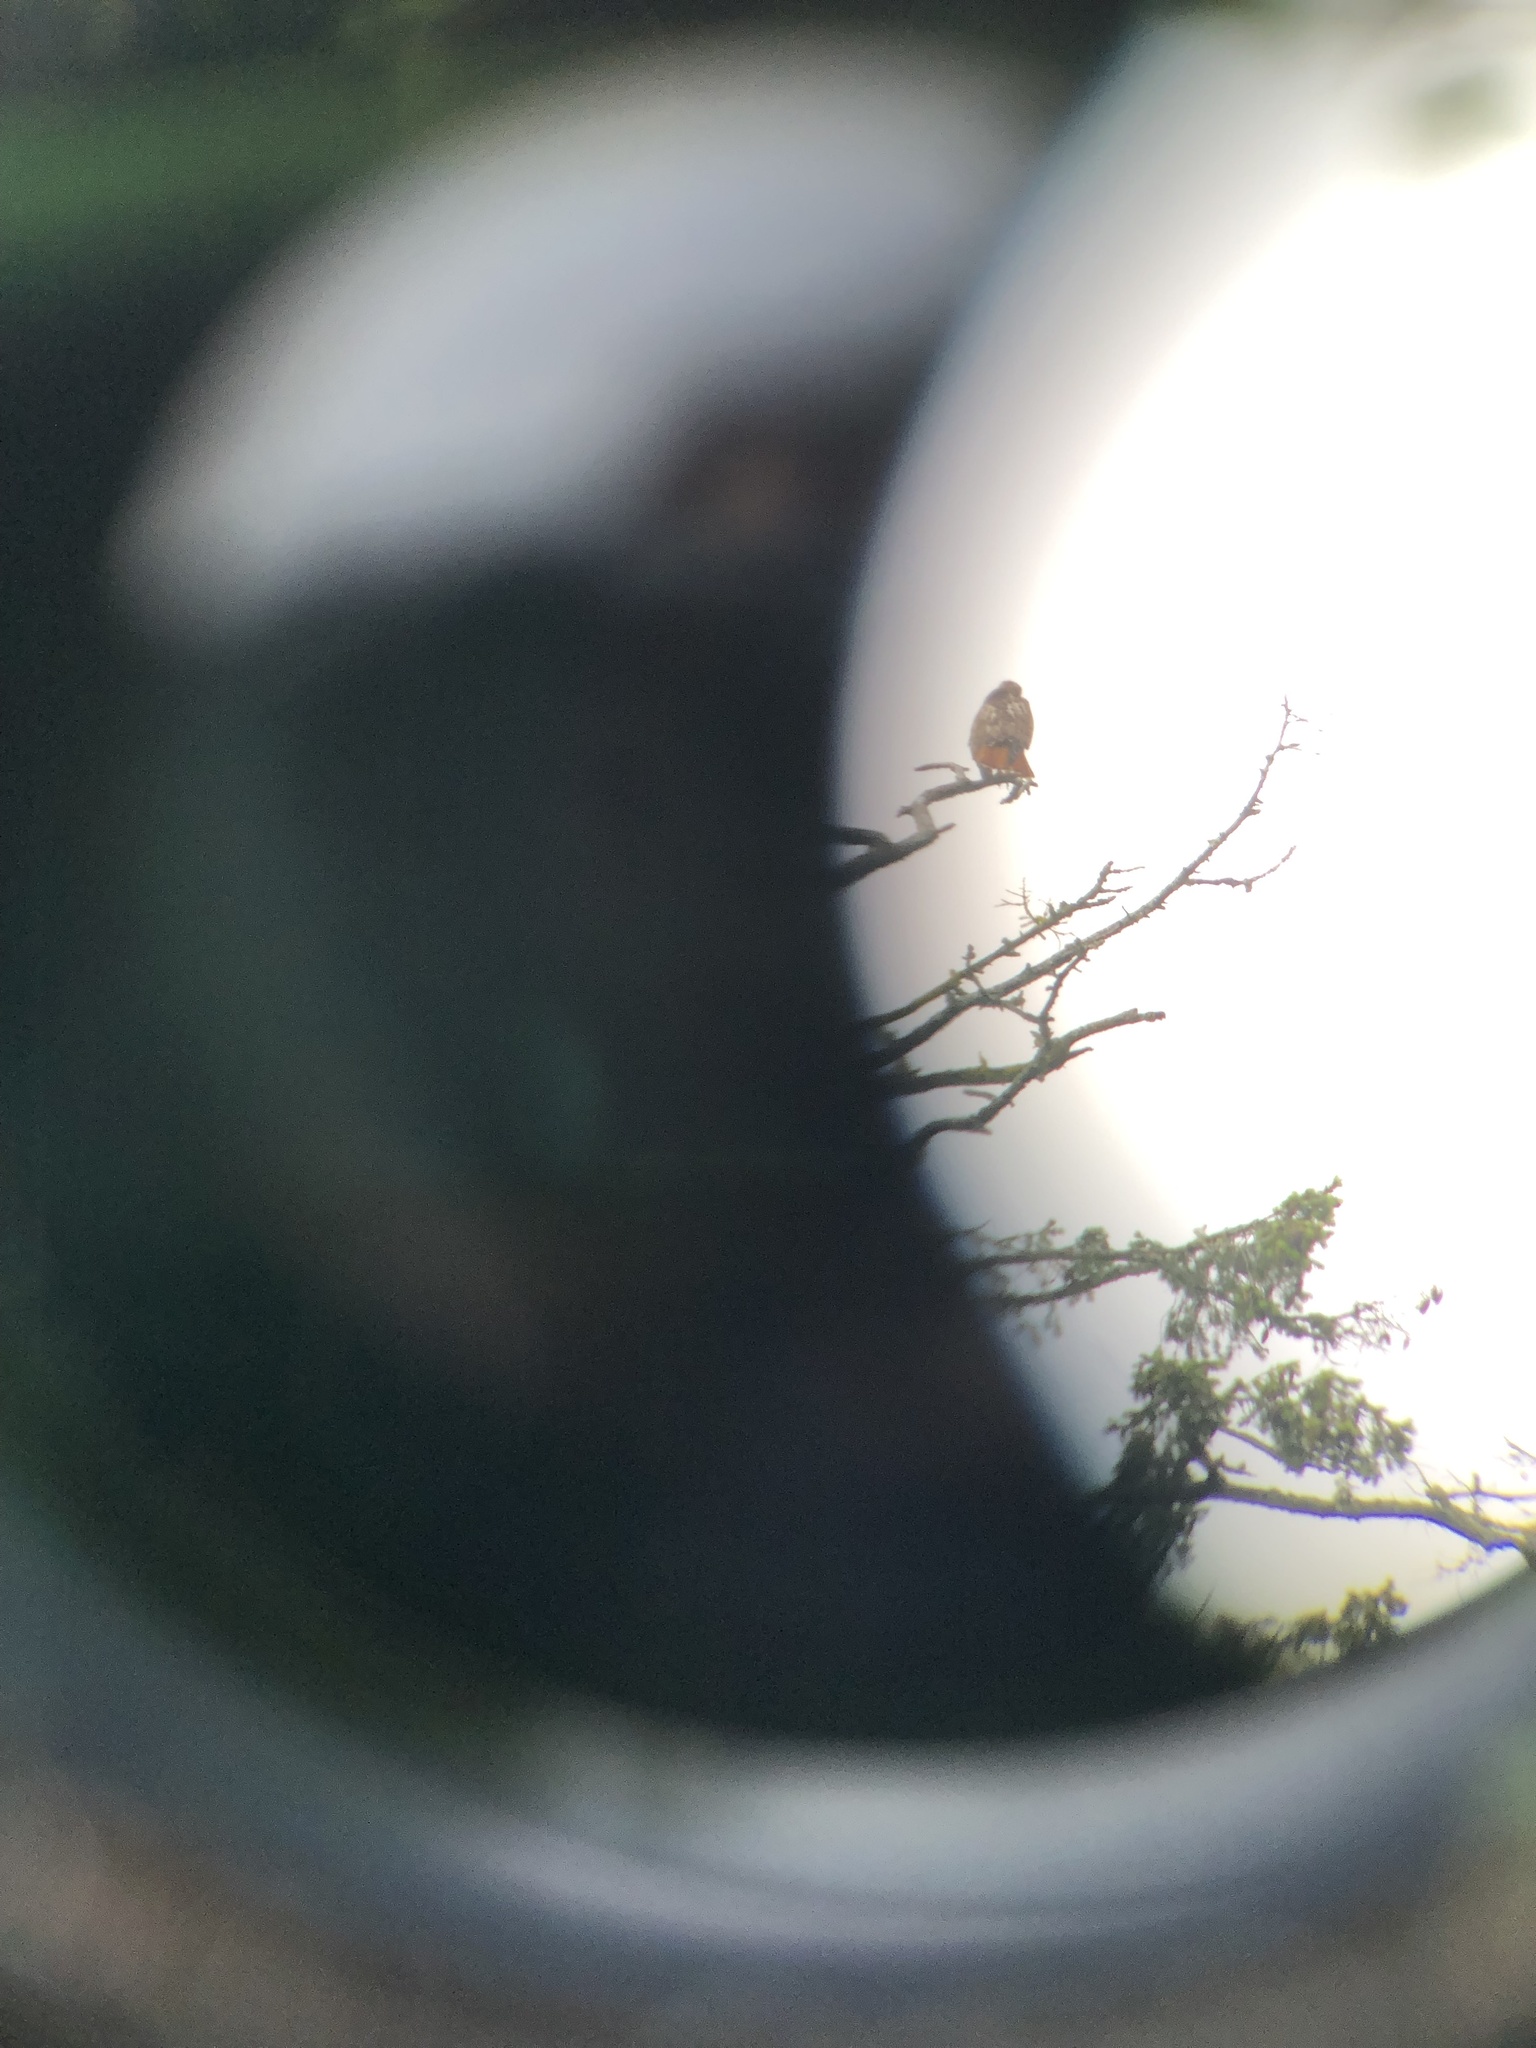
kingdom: Animalia
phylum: Chordata
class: Aves
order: Accipitriformes
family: Accipitridae
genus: Buteo
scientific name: Buteo jamaicensis
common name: Red-tailed hawk
